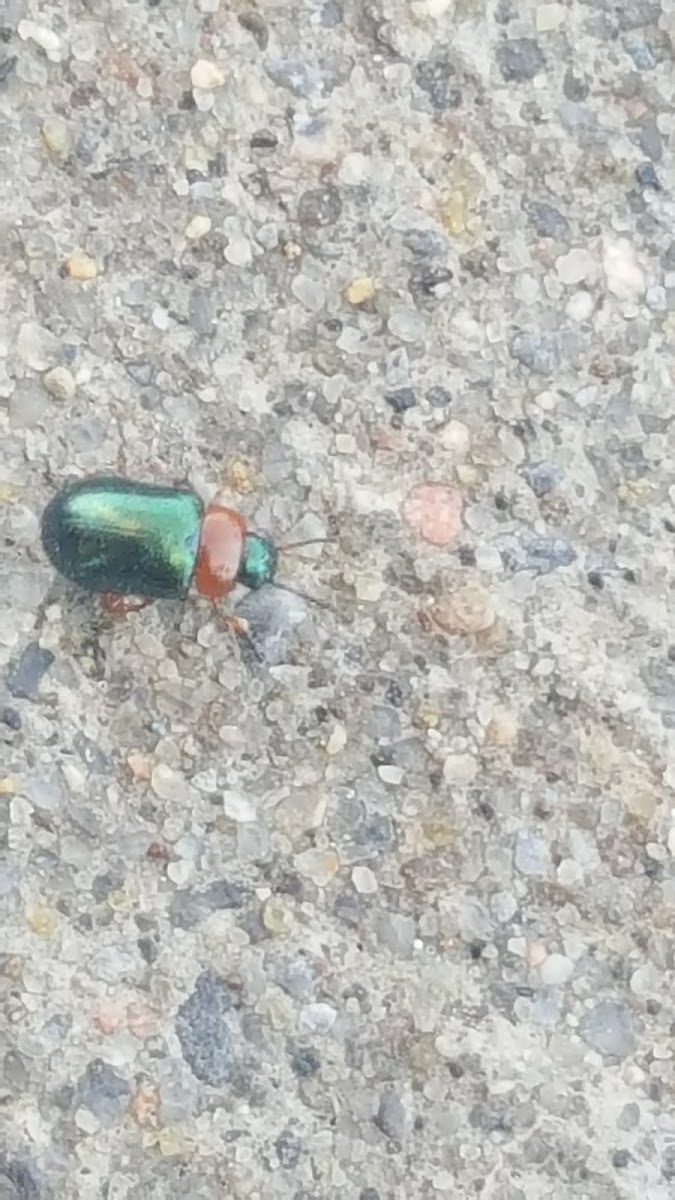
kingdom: Animalia
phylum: Arthropoda
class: Insecta
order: Coleoptera
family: Chrysomelidae
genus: Gastrophysa
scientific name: Gastrophysa polygoni
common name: Knotweed leaf beetle
